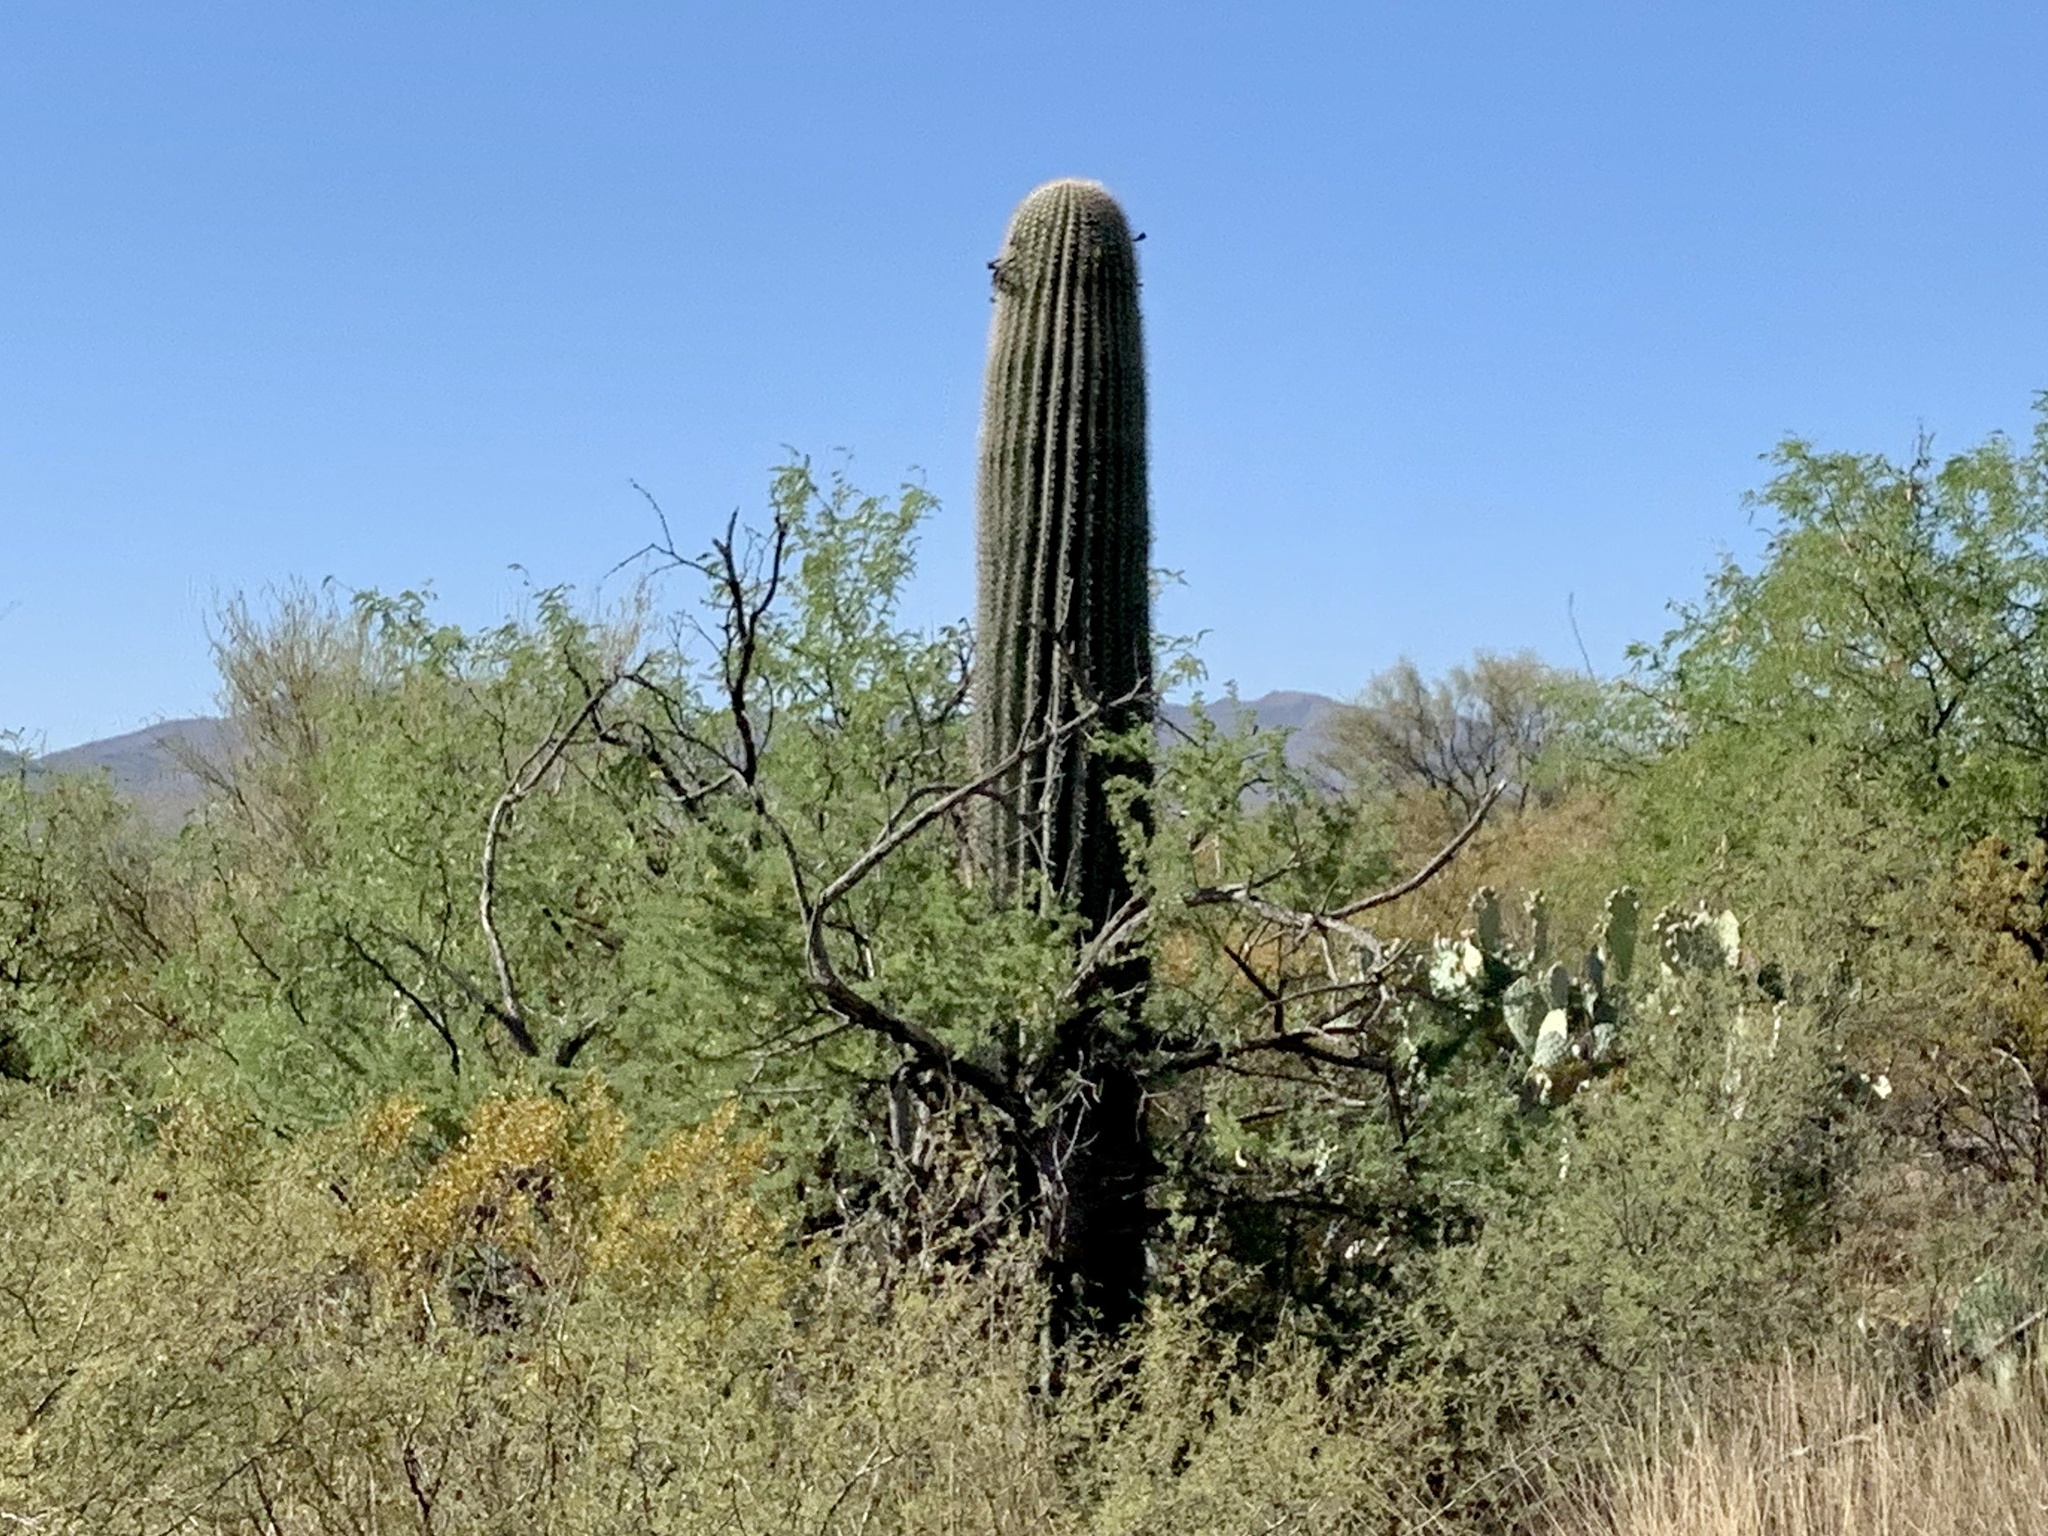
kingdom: Plantae
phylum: Tracheophyta
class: Magnoliopsida
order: Caryophyllales
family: Cactaceae
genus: Carnegiea
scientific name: Carnegiea gigantea
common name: Saguaro
